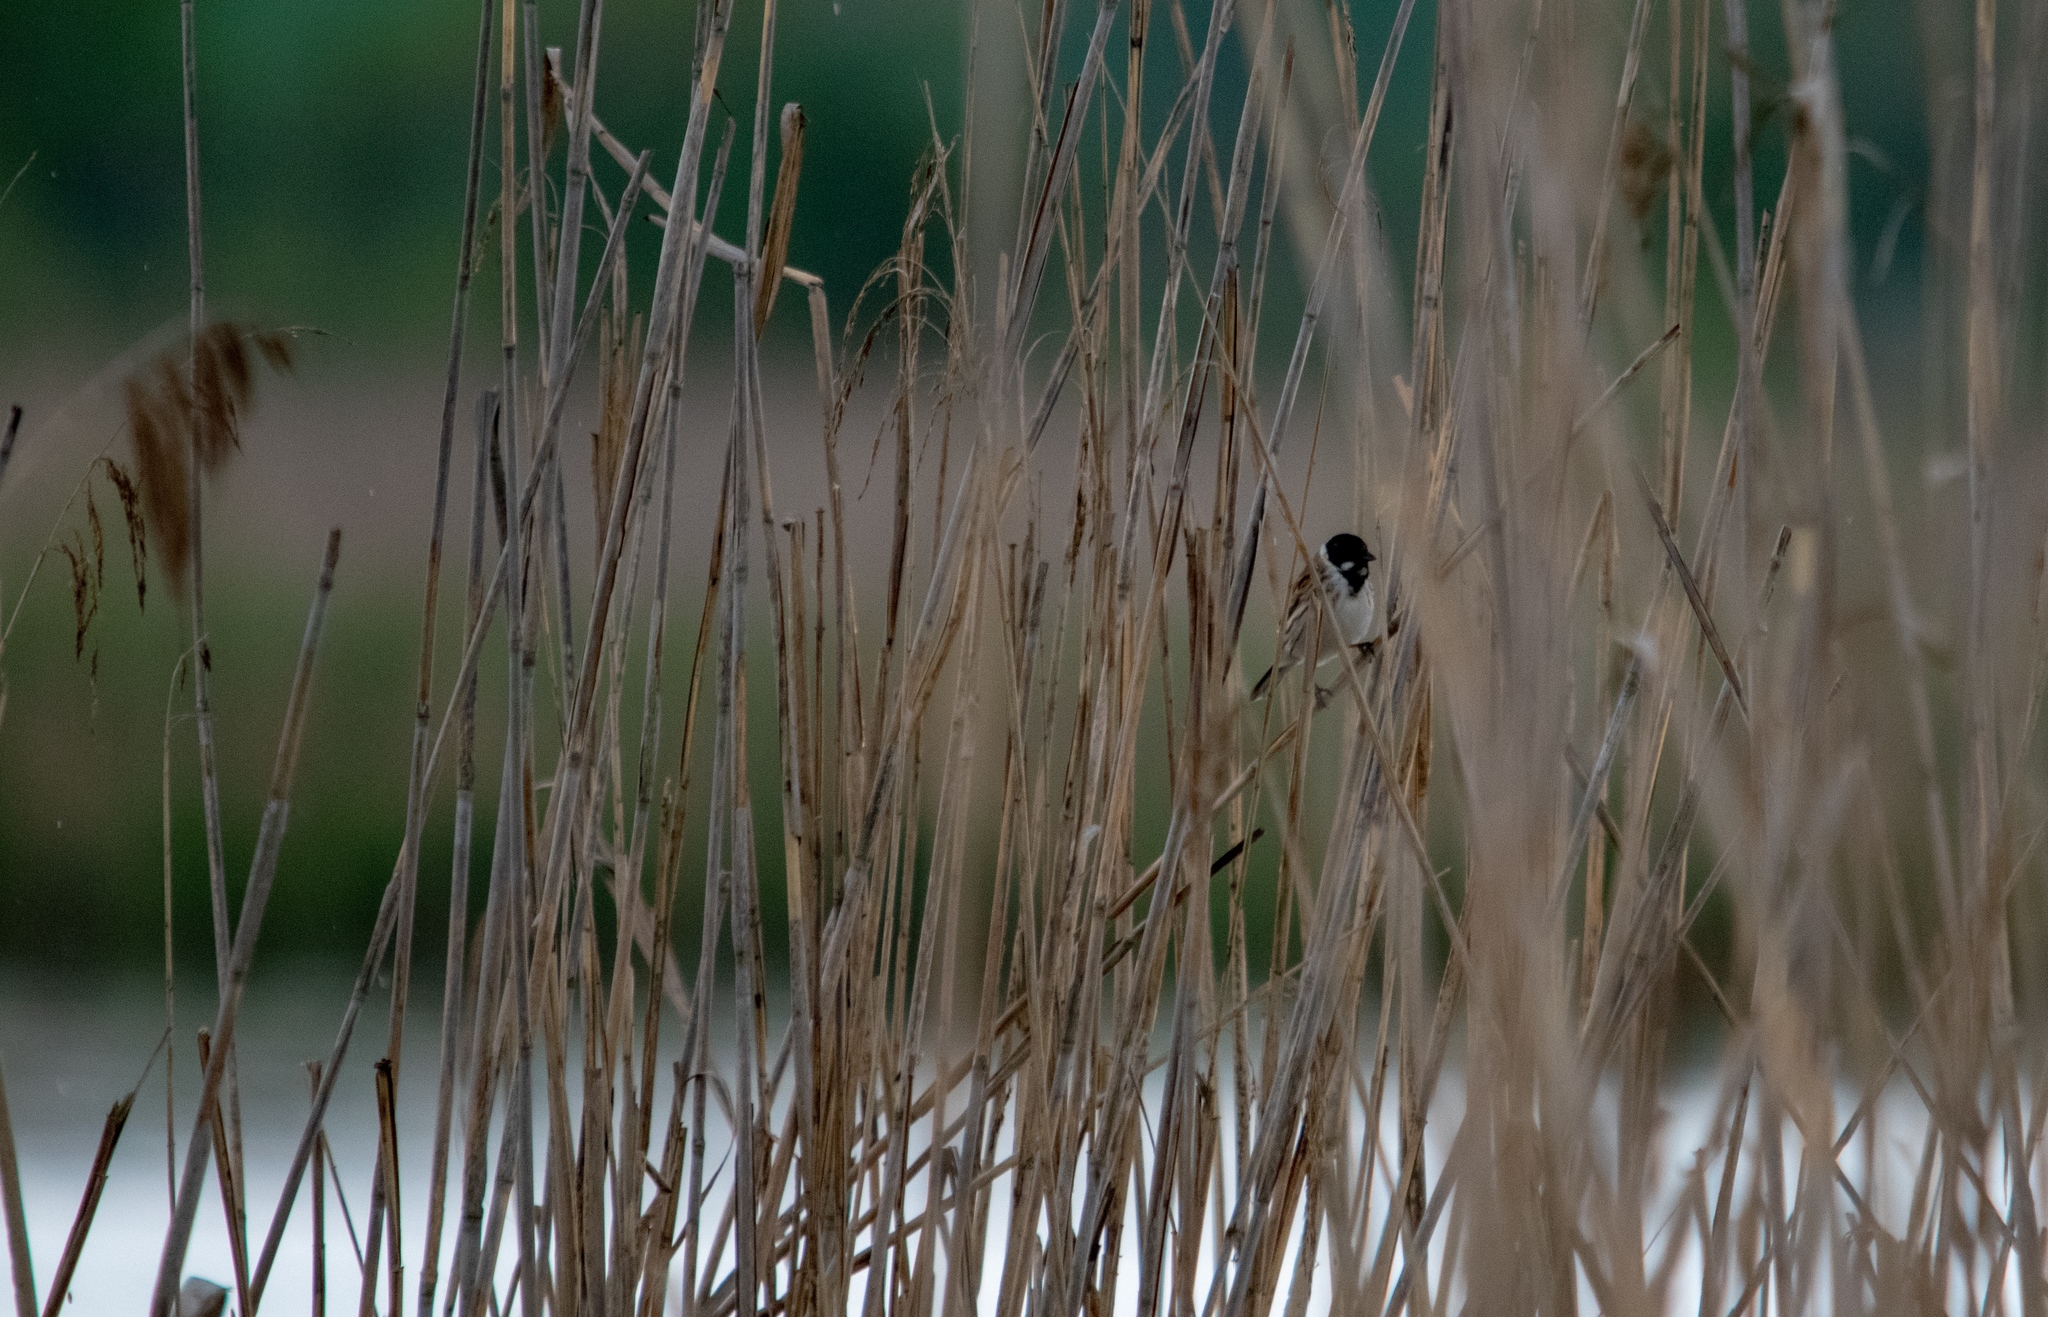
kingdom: Animalia
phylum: Chordata
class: Aves
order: Passeriformes
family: Emberizidae
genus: Emberiza
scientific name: Emberiza schoeniclus
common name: Reed bunting
